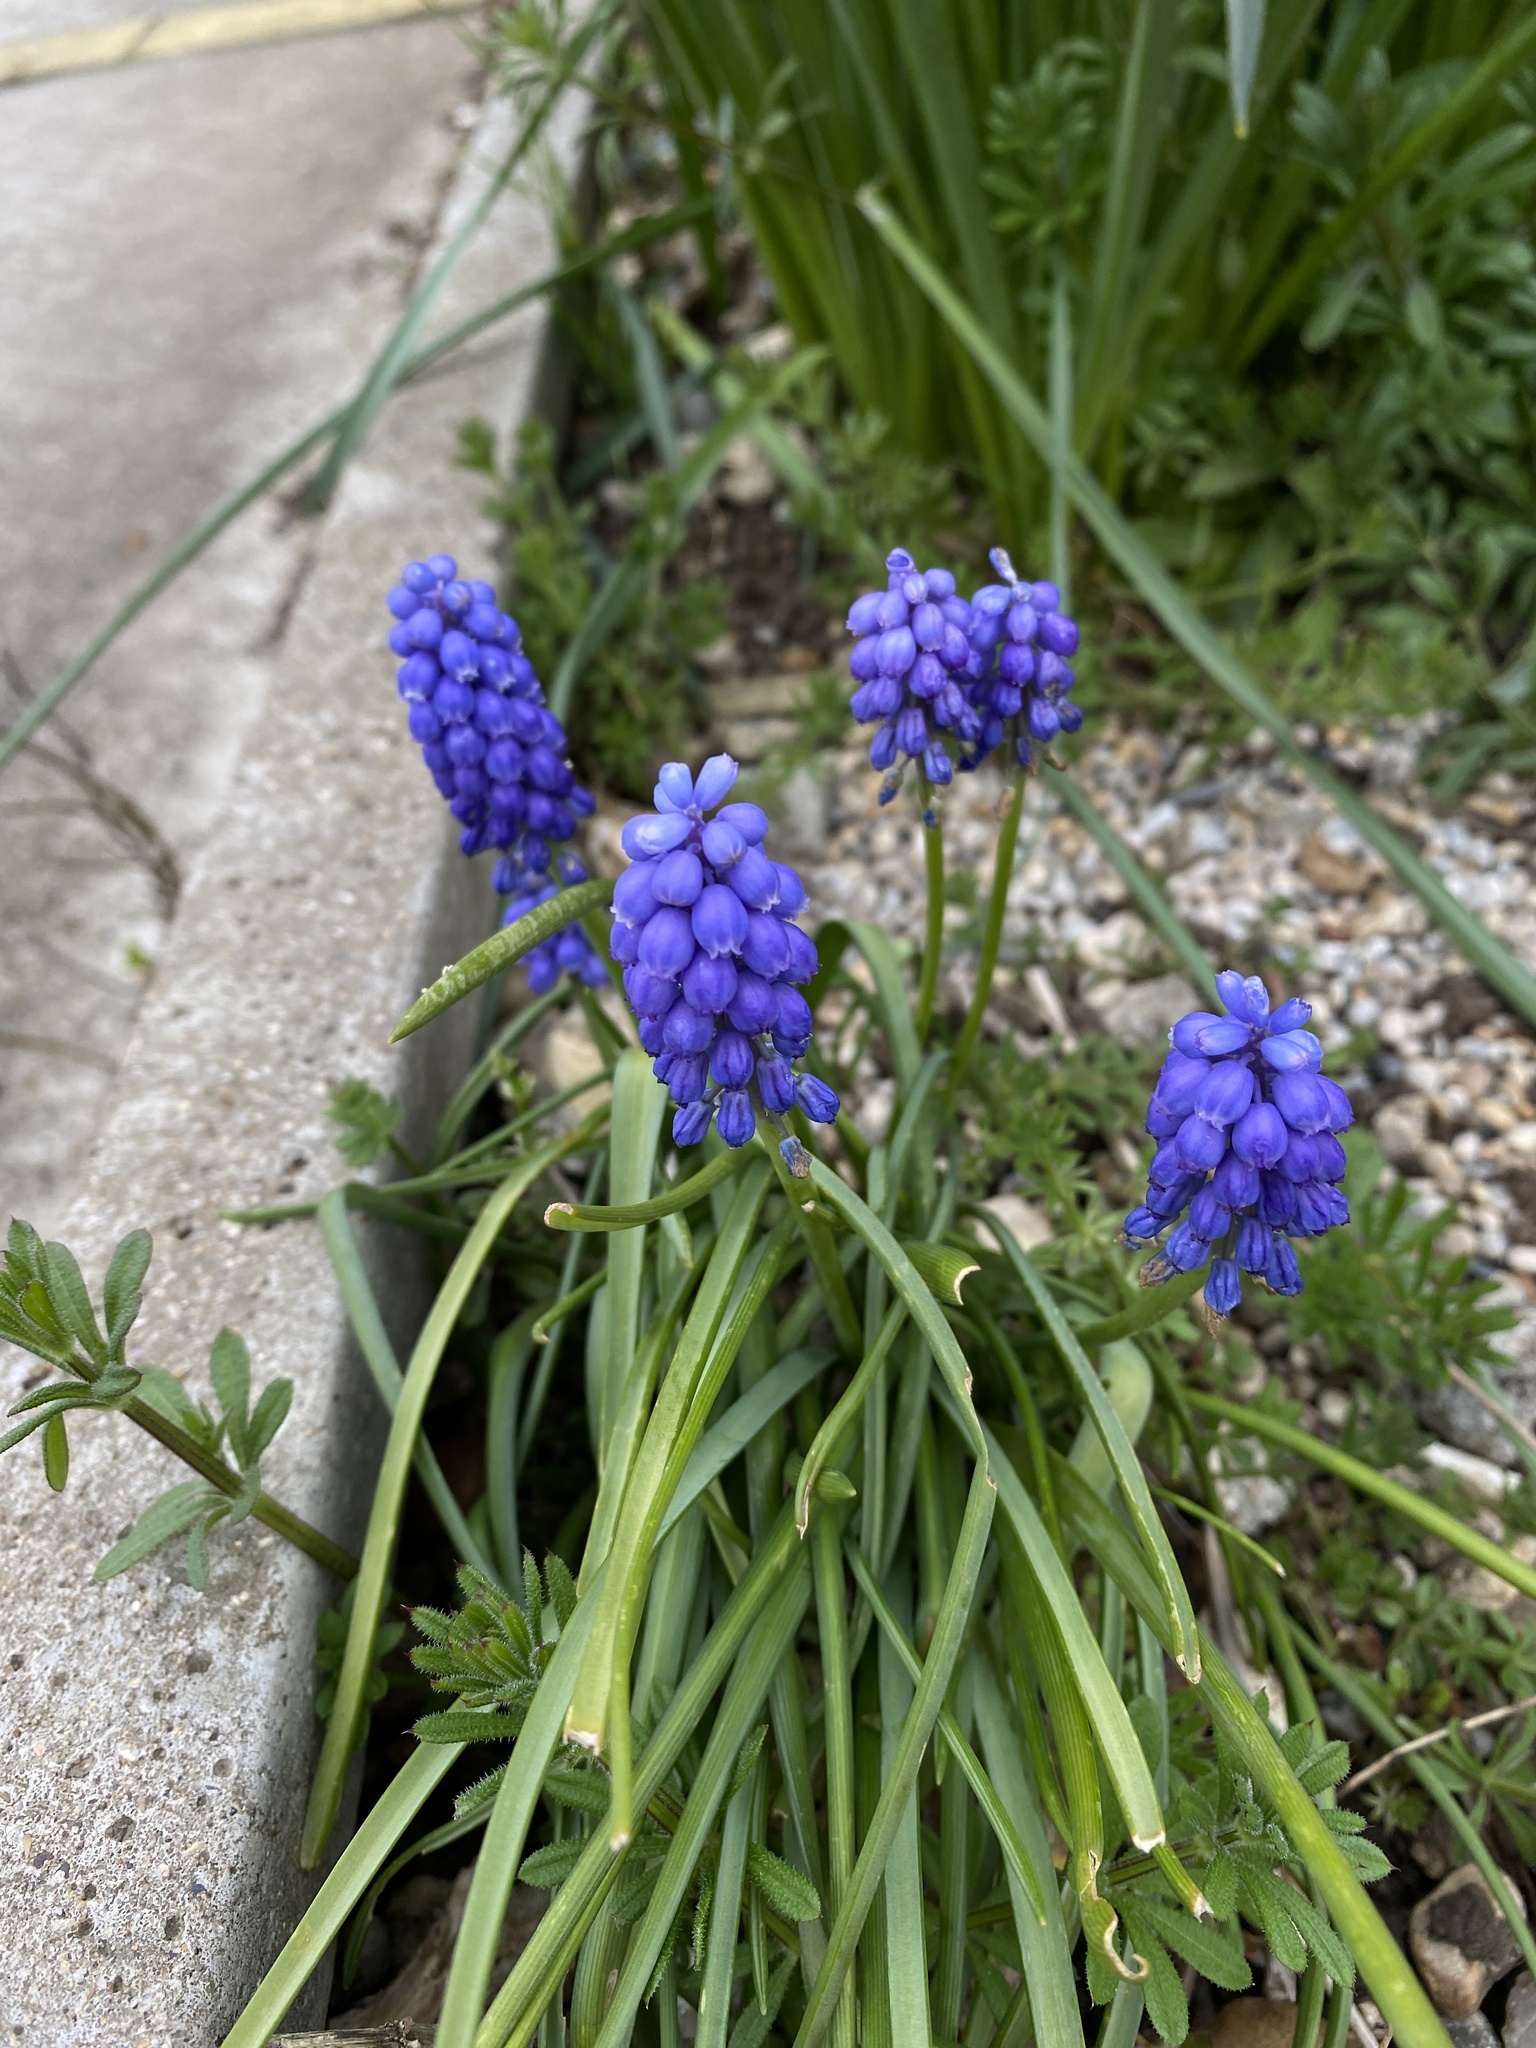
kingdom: Plantae
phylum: Tracheophyta
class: Liliopsida
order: Asparagales
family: Asparagaceae
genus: Muscari
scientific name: Muscari armeniacum
